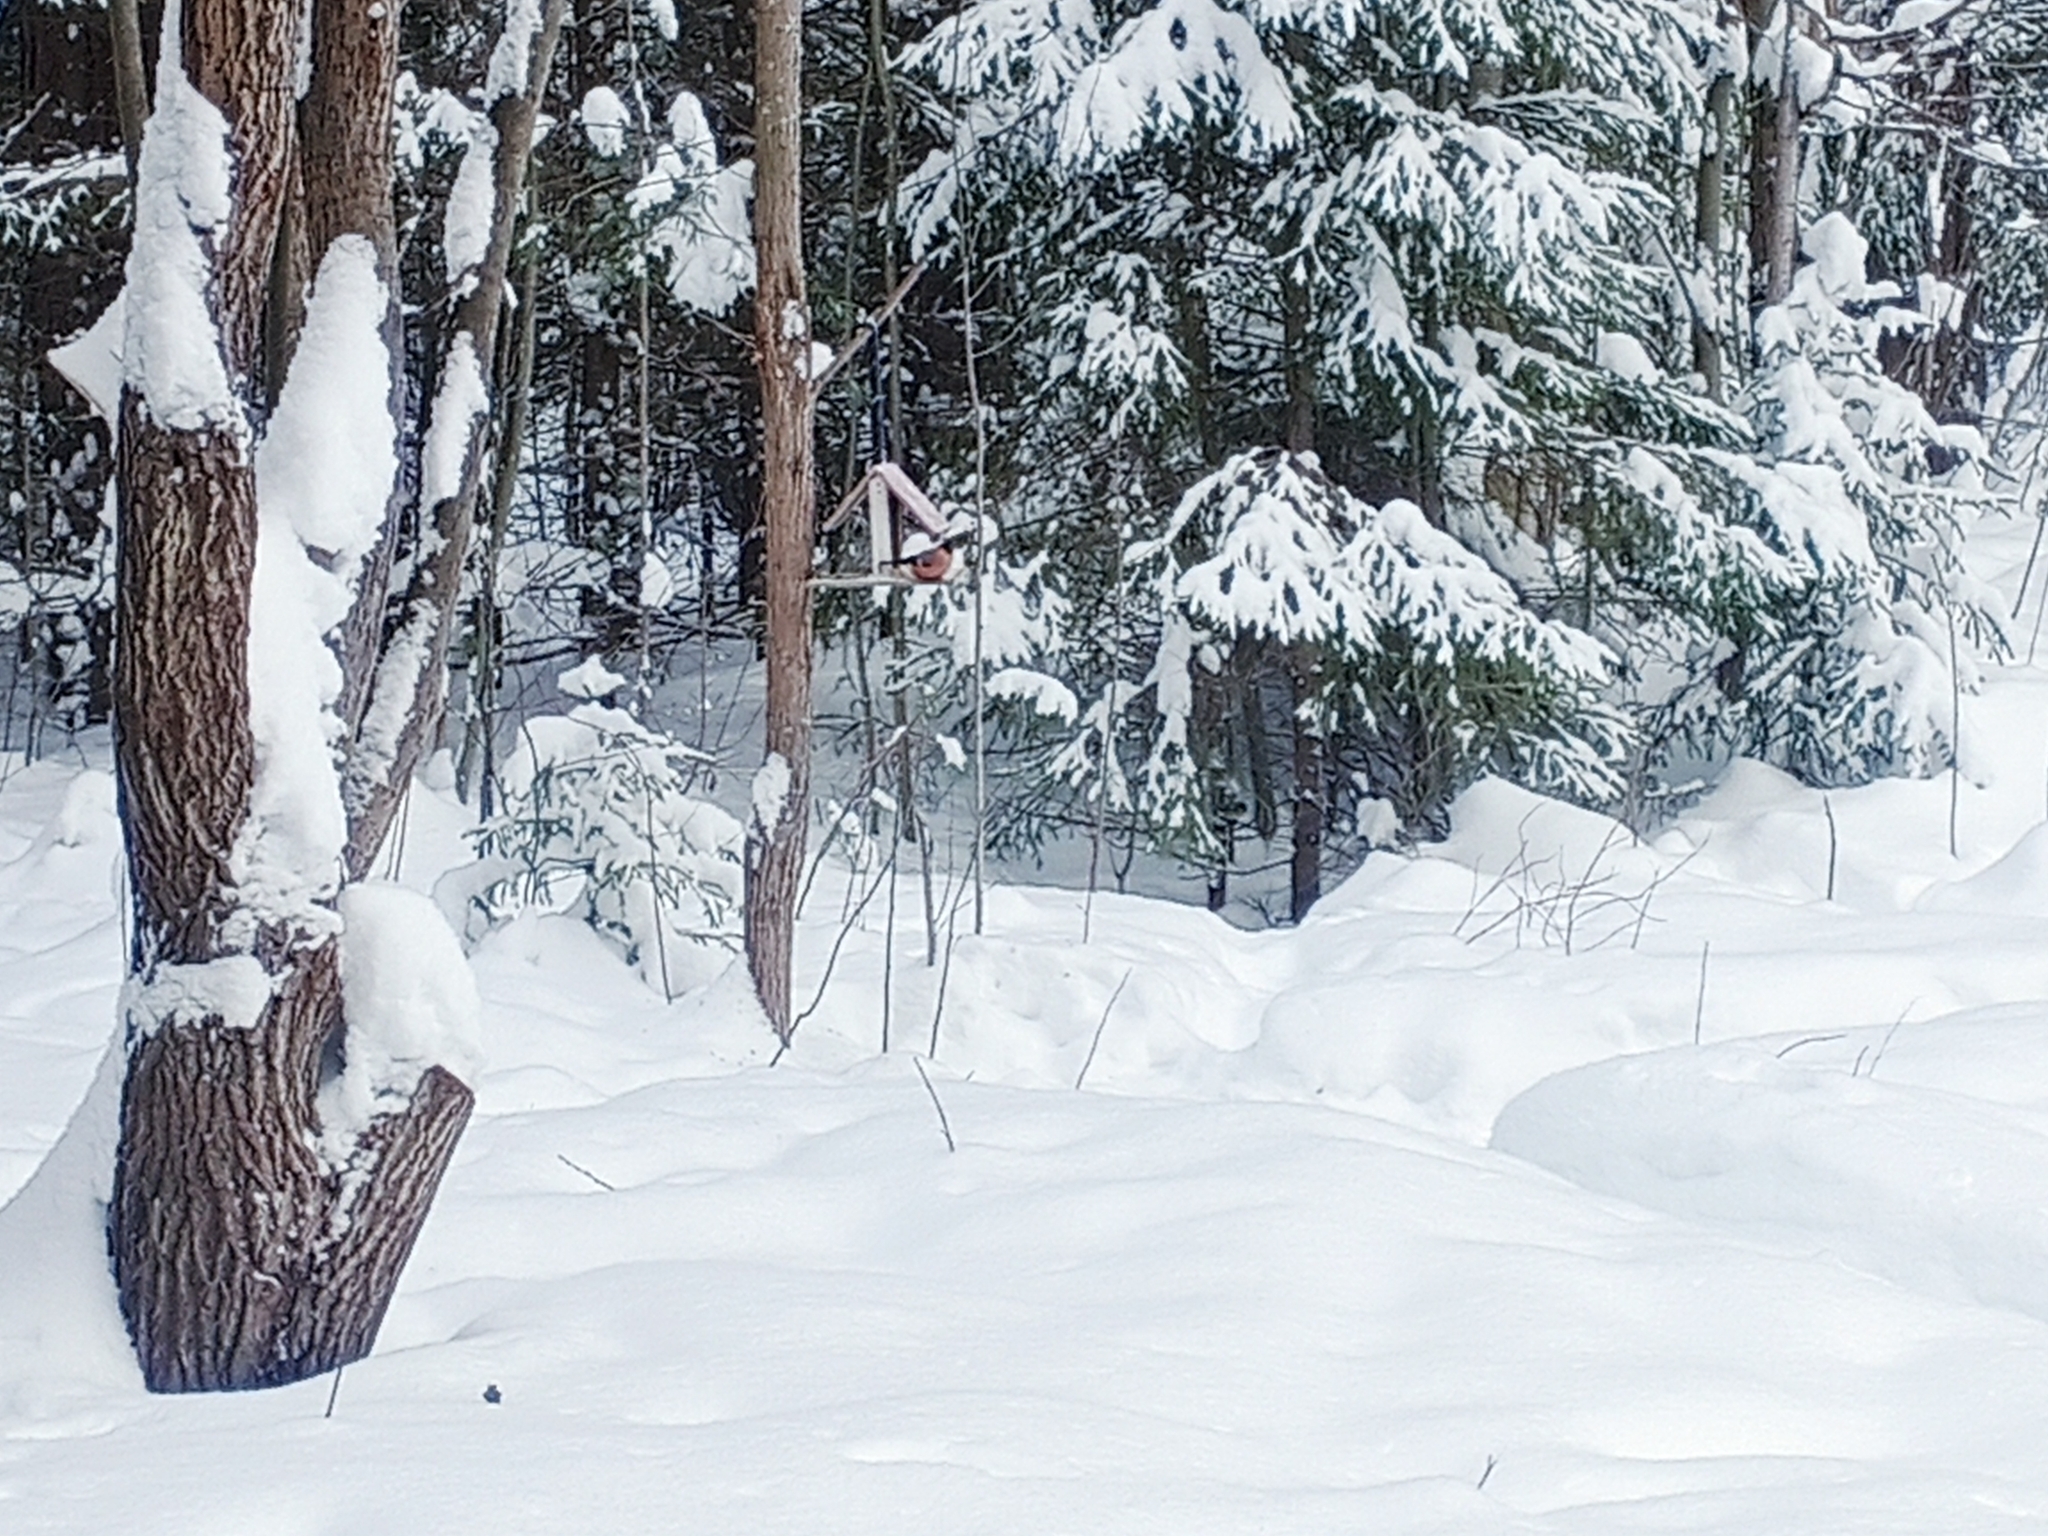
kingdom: Animalia
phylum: Chordata
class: Aves
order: Passeriformes
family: Fringillidae
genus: Pyrrhula
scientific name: Pyrrhula pyrrhula
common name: Eurasian bullfinch
